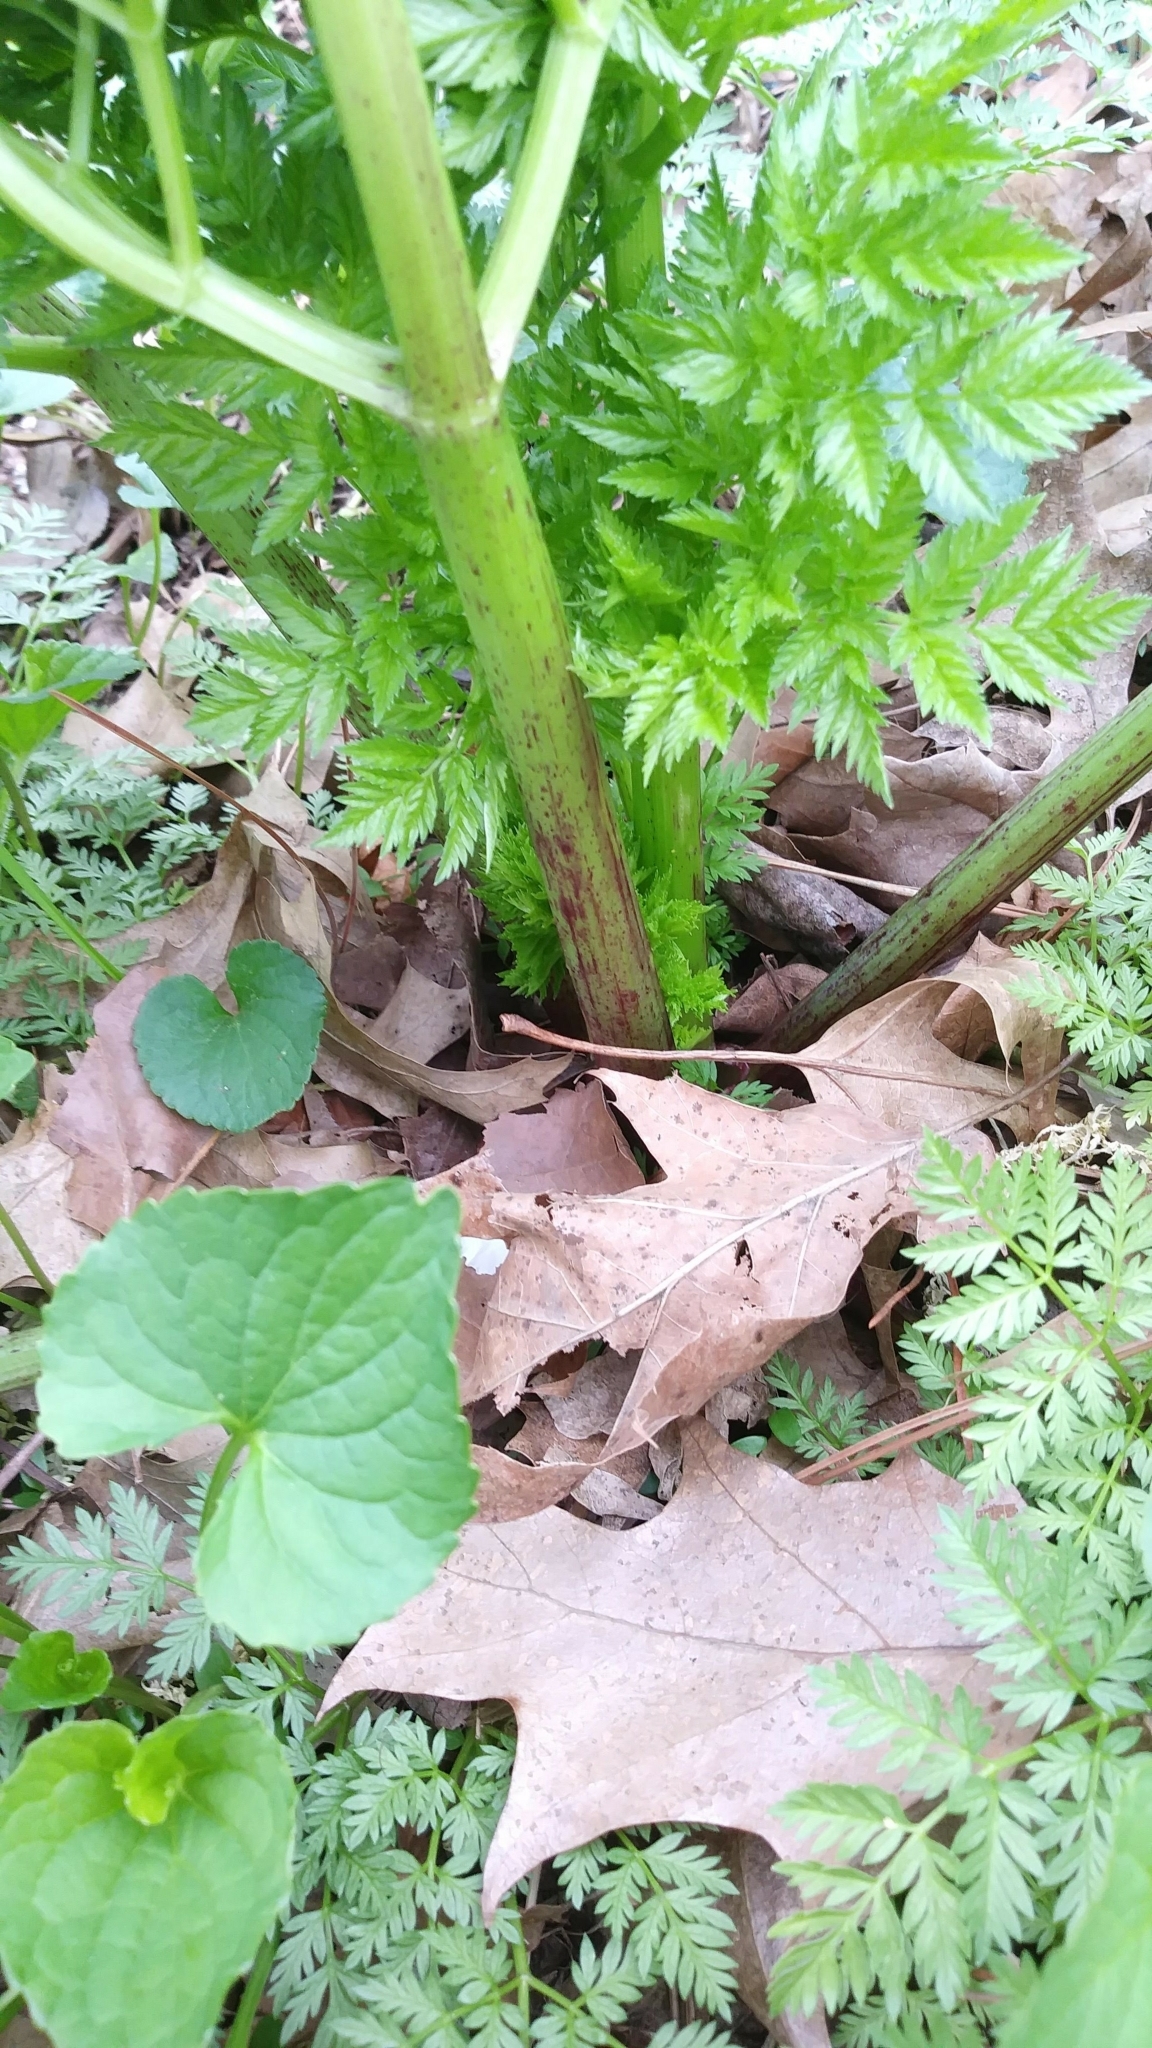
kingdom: Plantae
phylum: Tracheophyta
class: Magnoliopsida
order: Apiales
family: Apiaceae
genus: Conium
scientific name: Conium maculatum
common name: Hemlock
